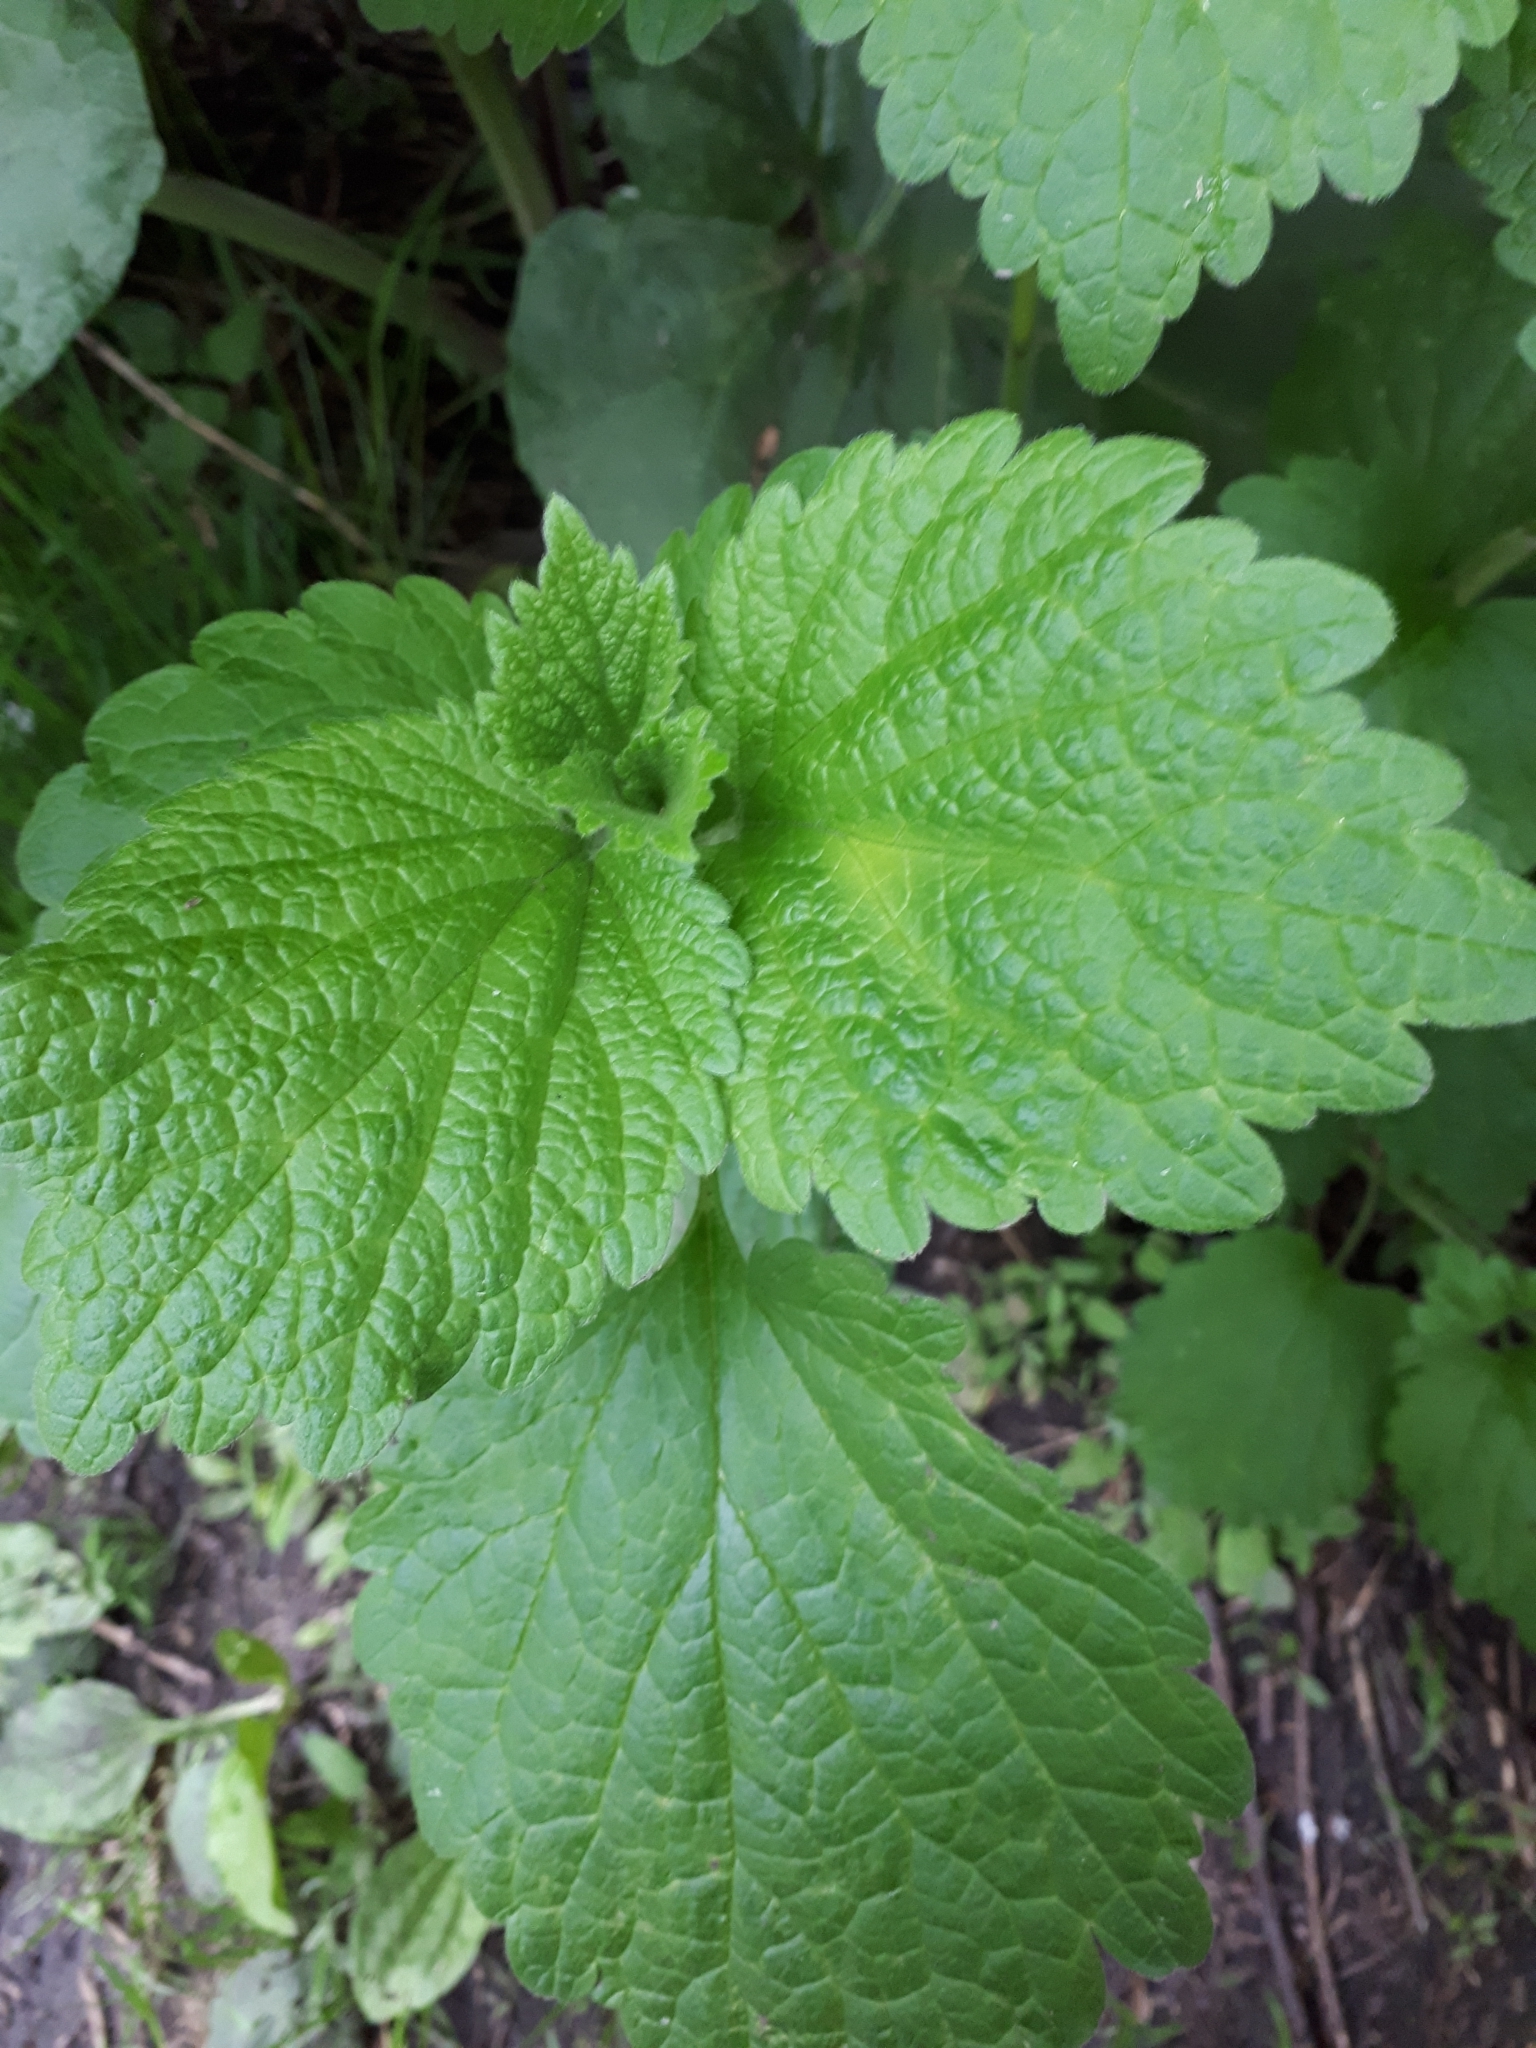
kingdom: Plantae
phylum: Tracheophyta
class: Magnoliopsida
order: Lamiales
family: Lamiaceae
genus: Ballota
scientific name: Ballota nigra
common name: Black horehound
